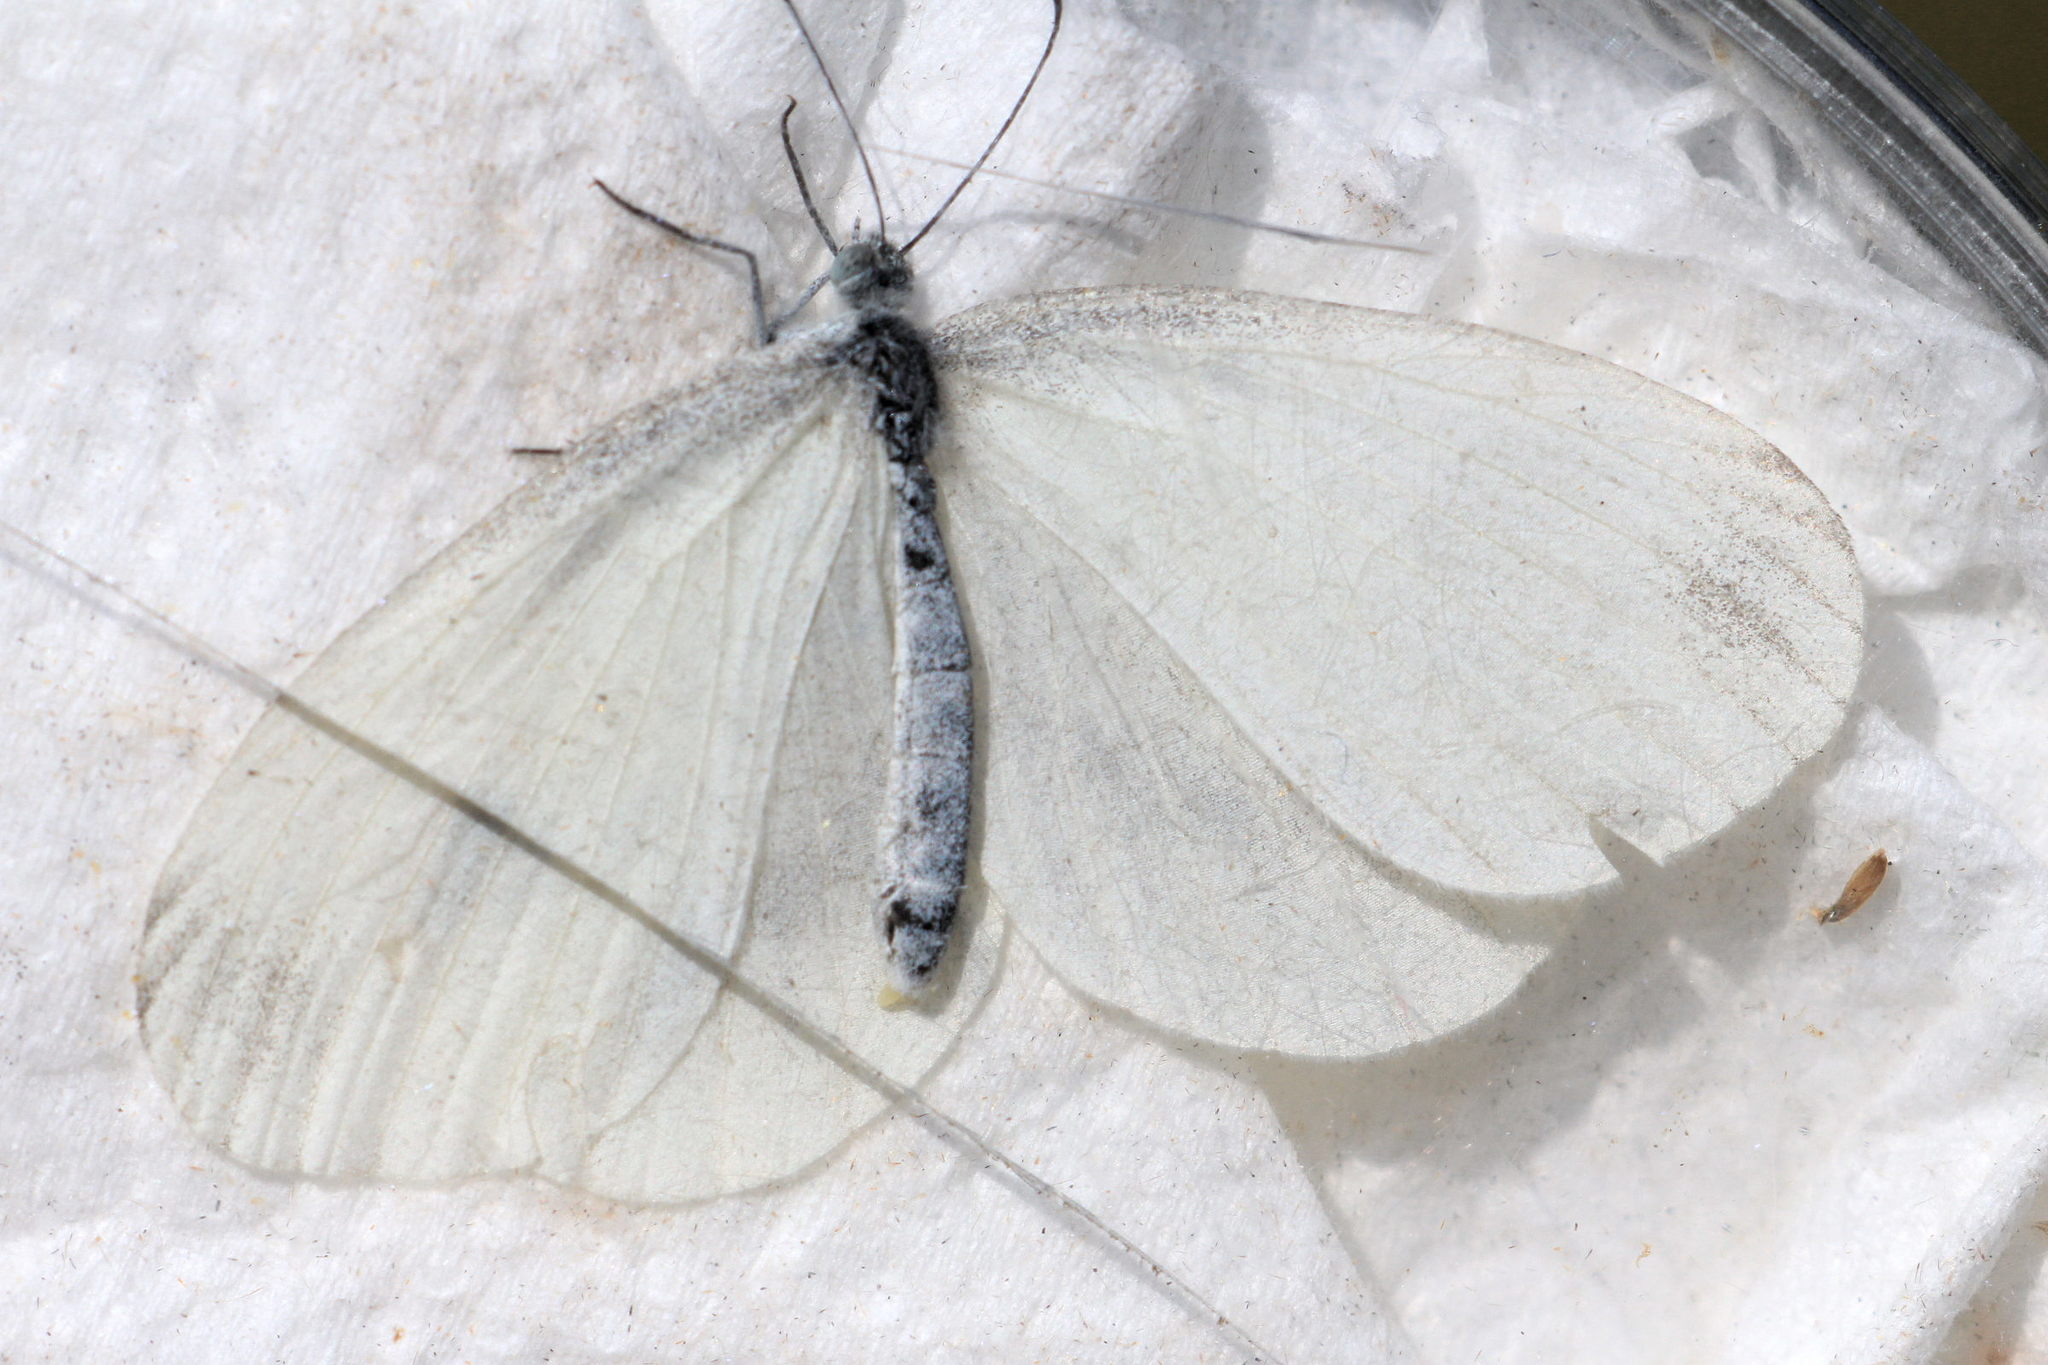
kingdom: Animalia
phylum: Arthropoda
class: Insecta
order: Lepidoptera
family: Pieridae
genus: Leptidea
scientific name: Leptidea
